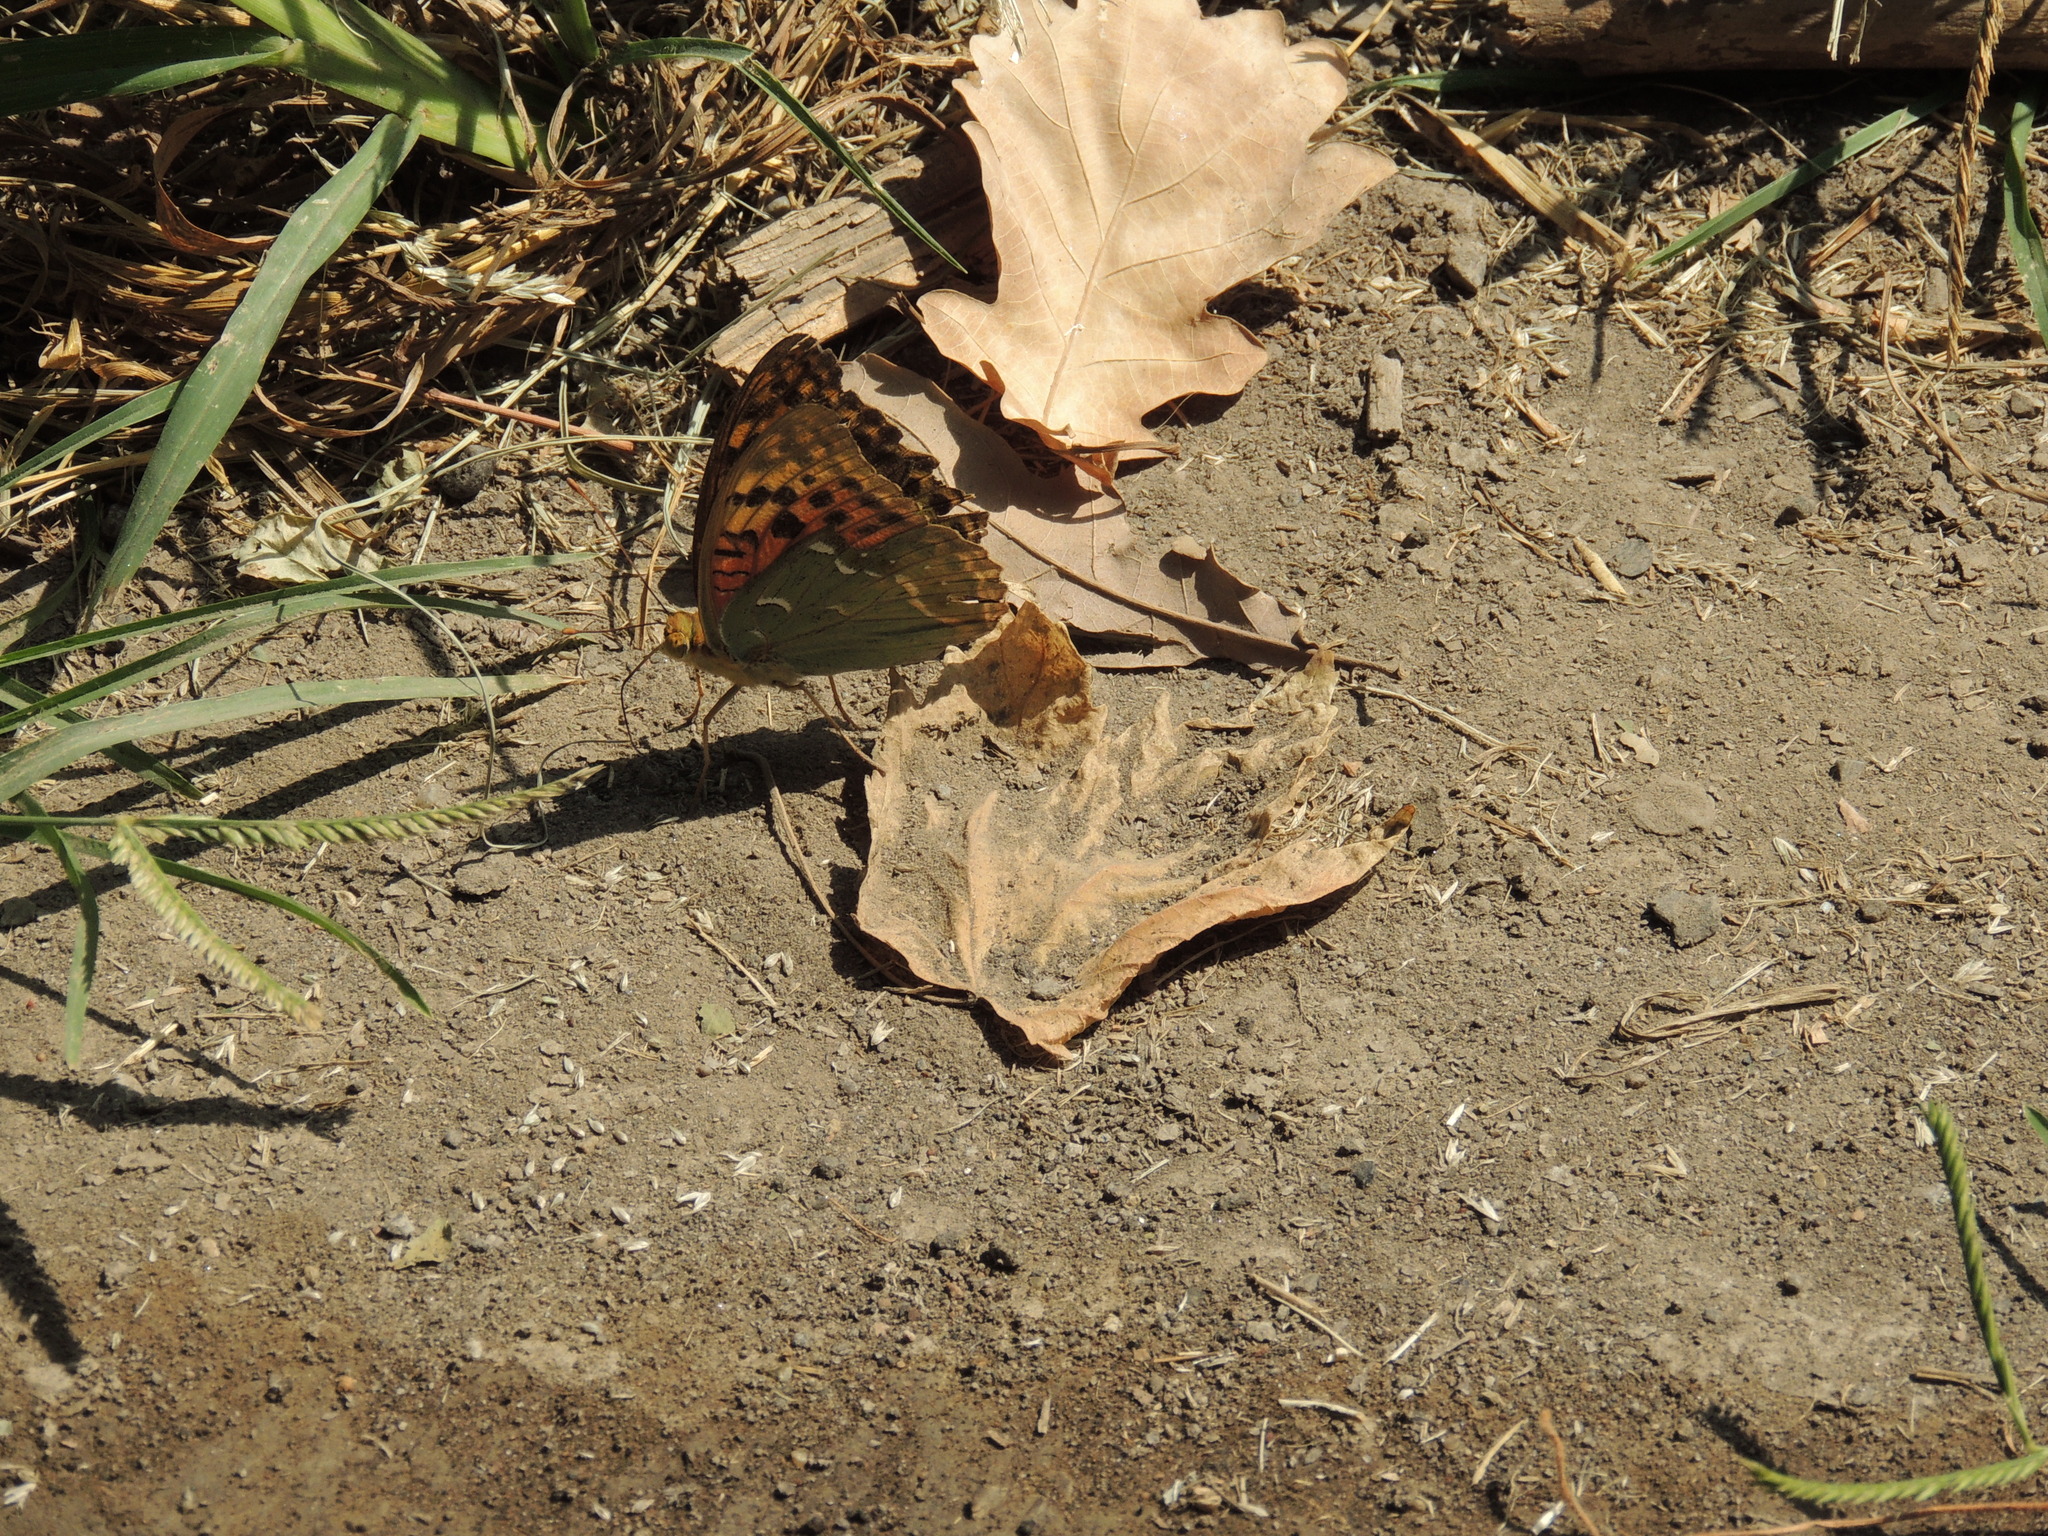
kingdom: Animalia
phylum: Arthropoda
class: Insecta
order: Lepidoptera
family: Nymphalidae
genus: Damora
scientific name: Damora pandora
